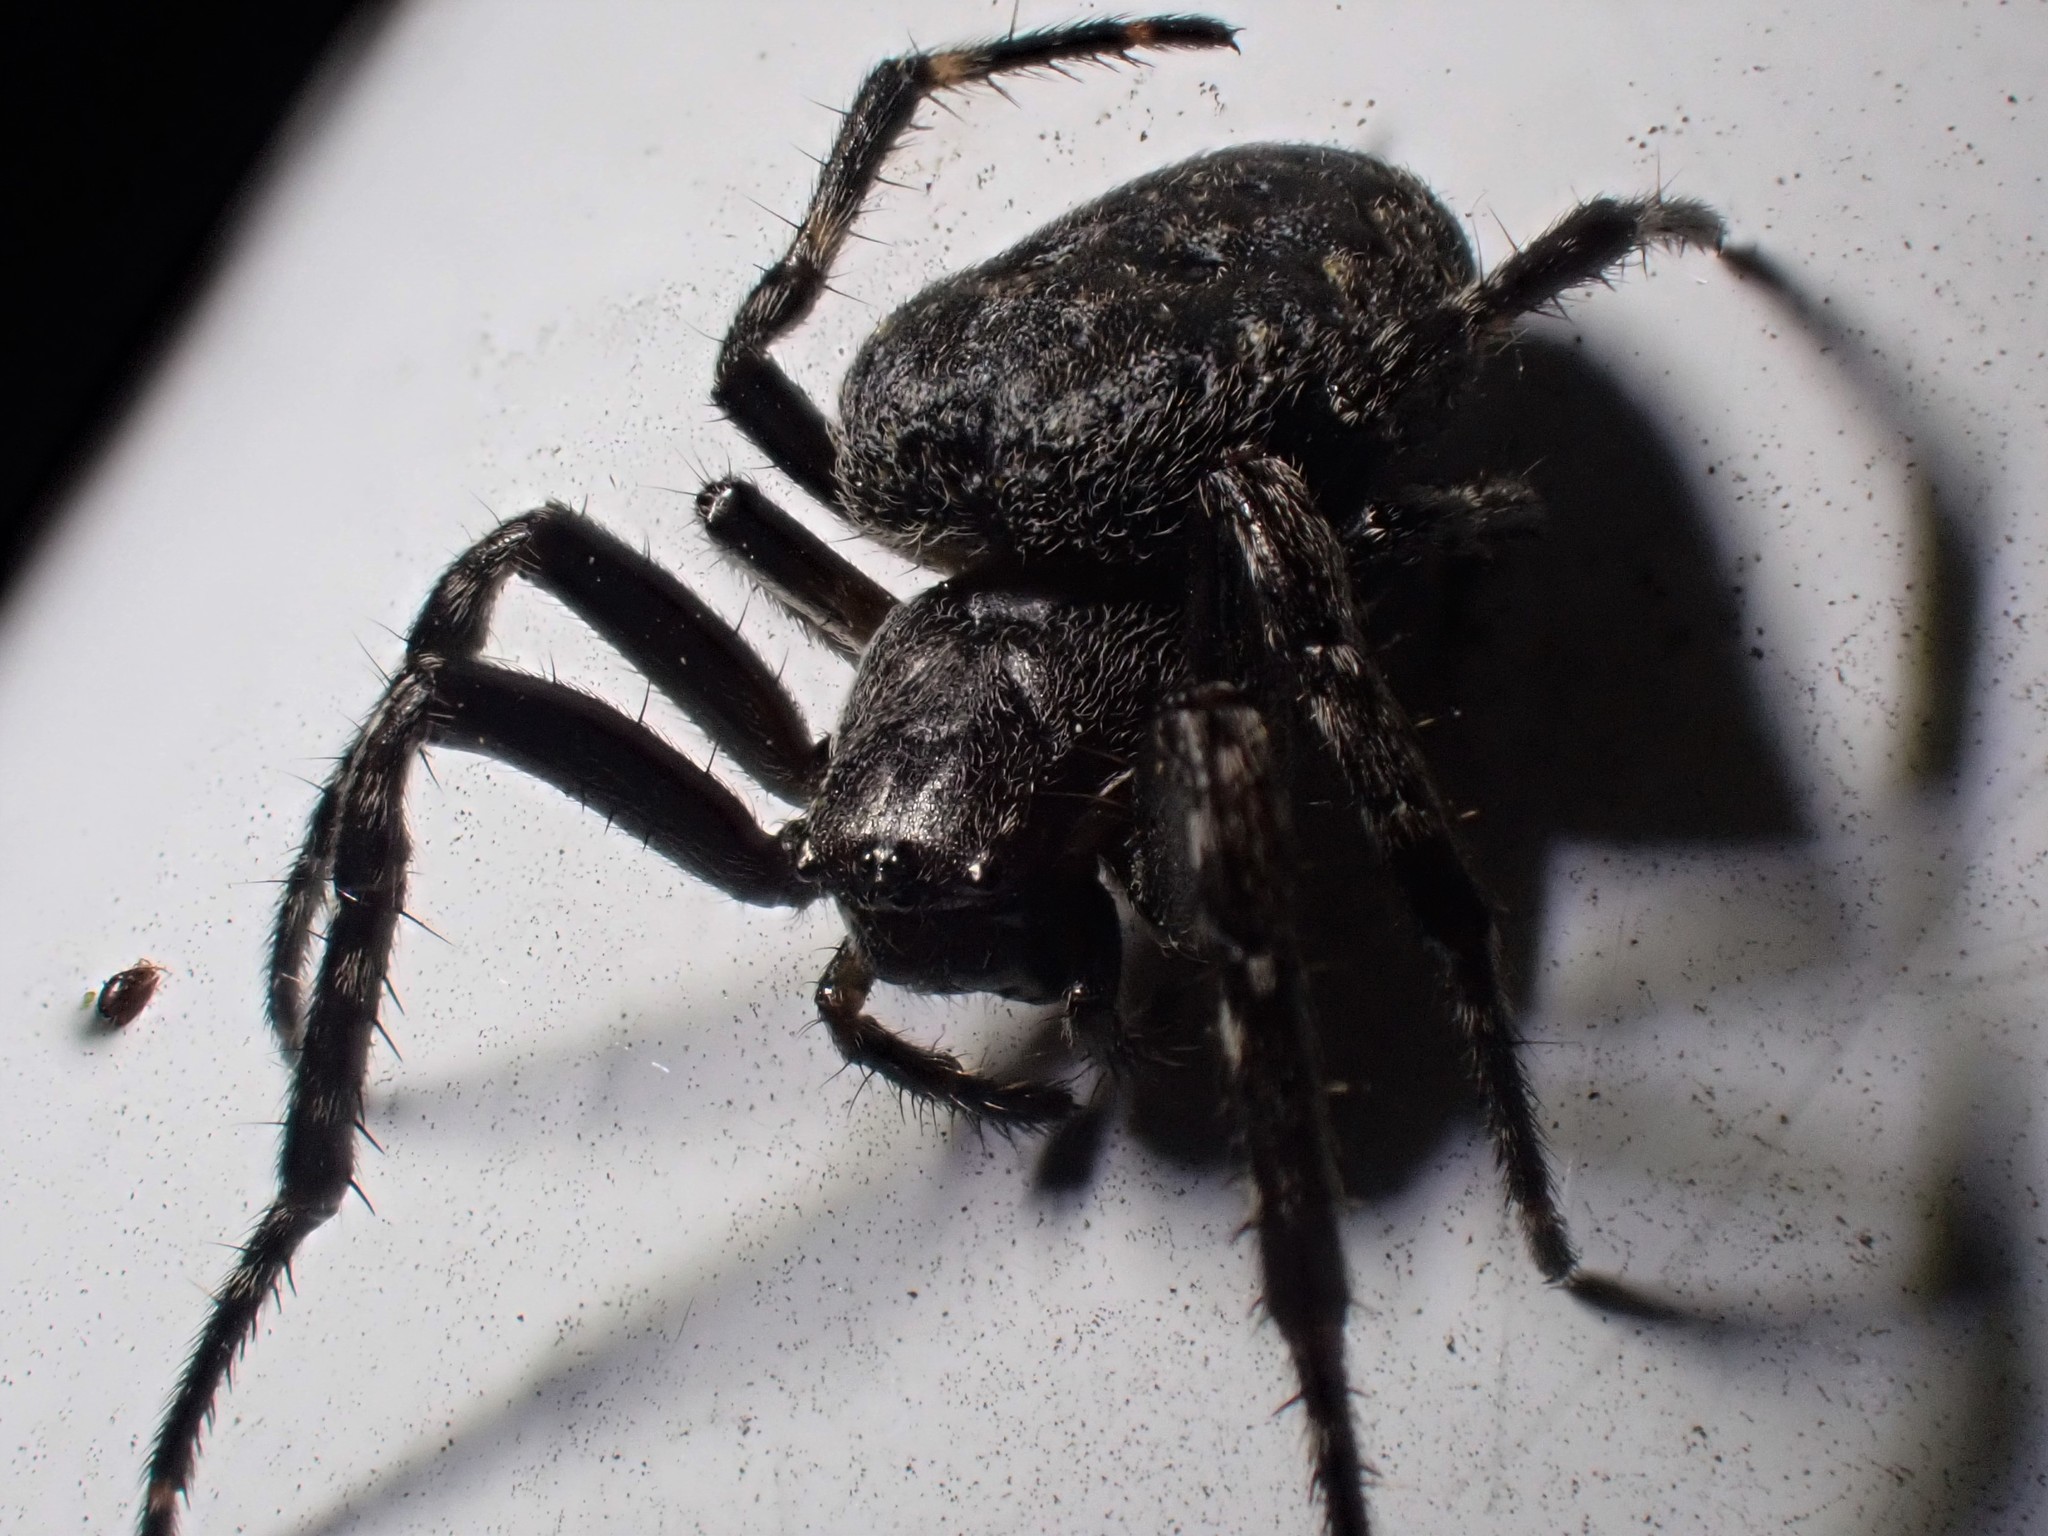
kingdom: Animalia
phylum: Arthropoda
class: Arachnida
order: Araneae
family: Araneidae
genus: Nuctenea
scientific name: Nuctenea umbratica
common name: Toad spider
